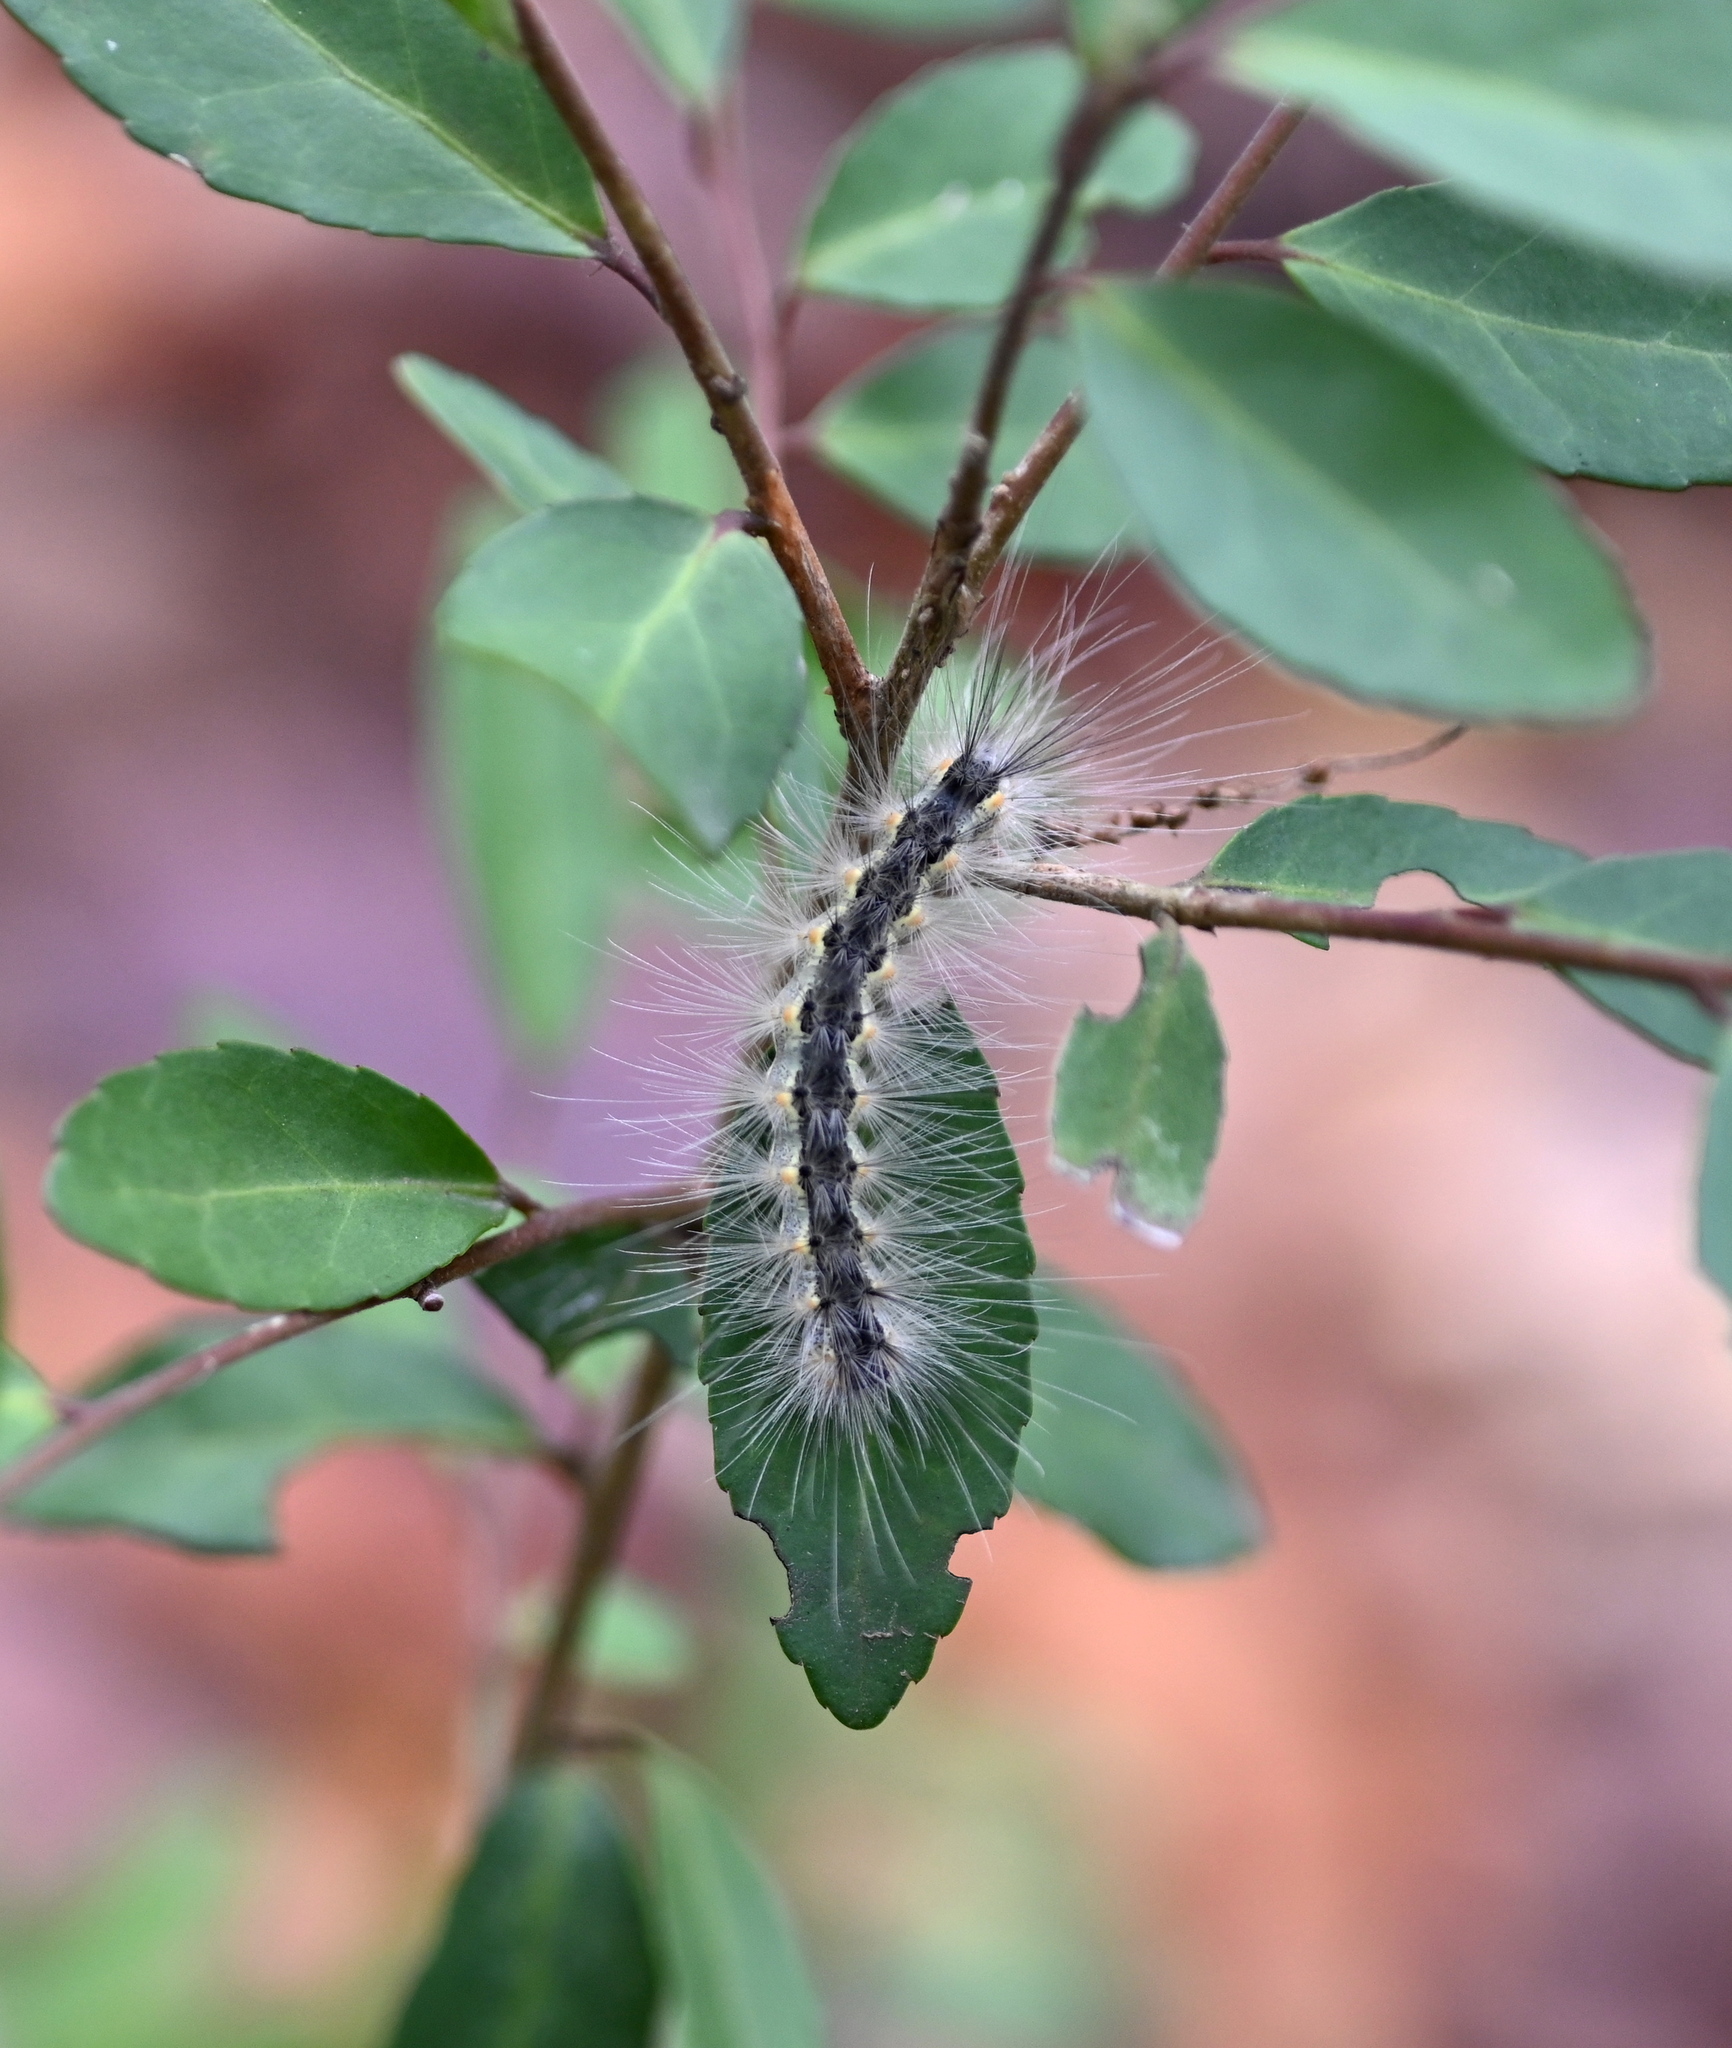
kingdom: Animalia
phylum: Arthropoda
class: Insecta
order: Lepidoptera
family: Erebidae
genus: Hyphantria
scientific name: Hyphantria cunea
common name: American white moth
